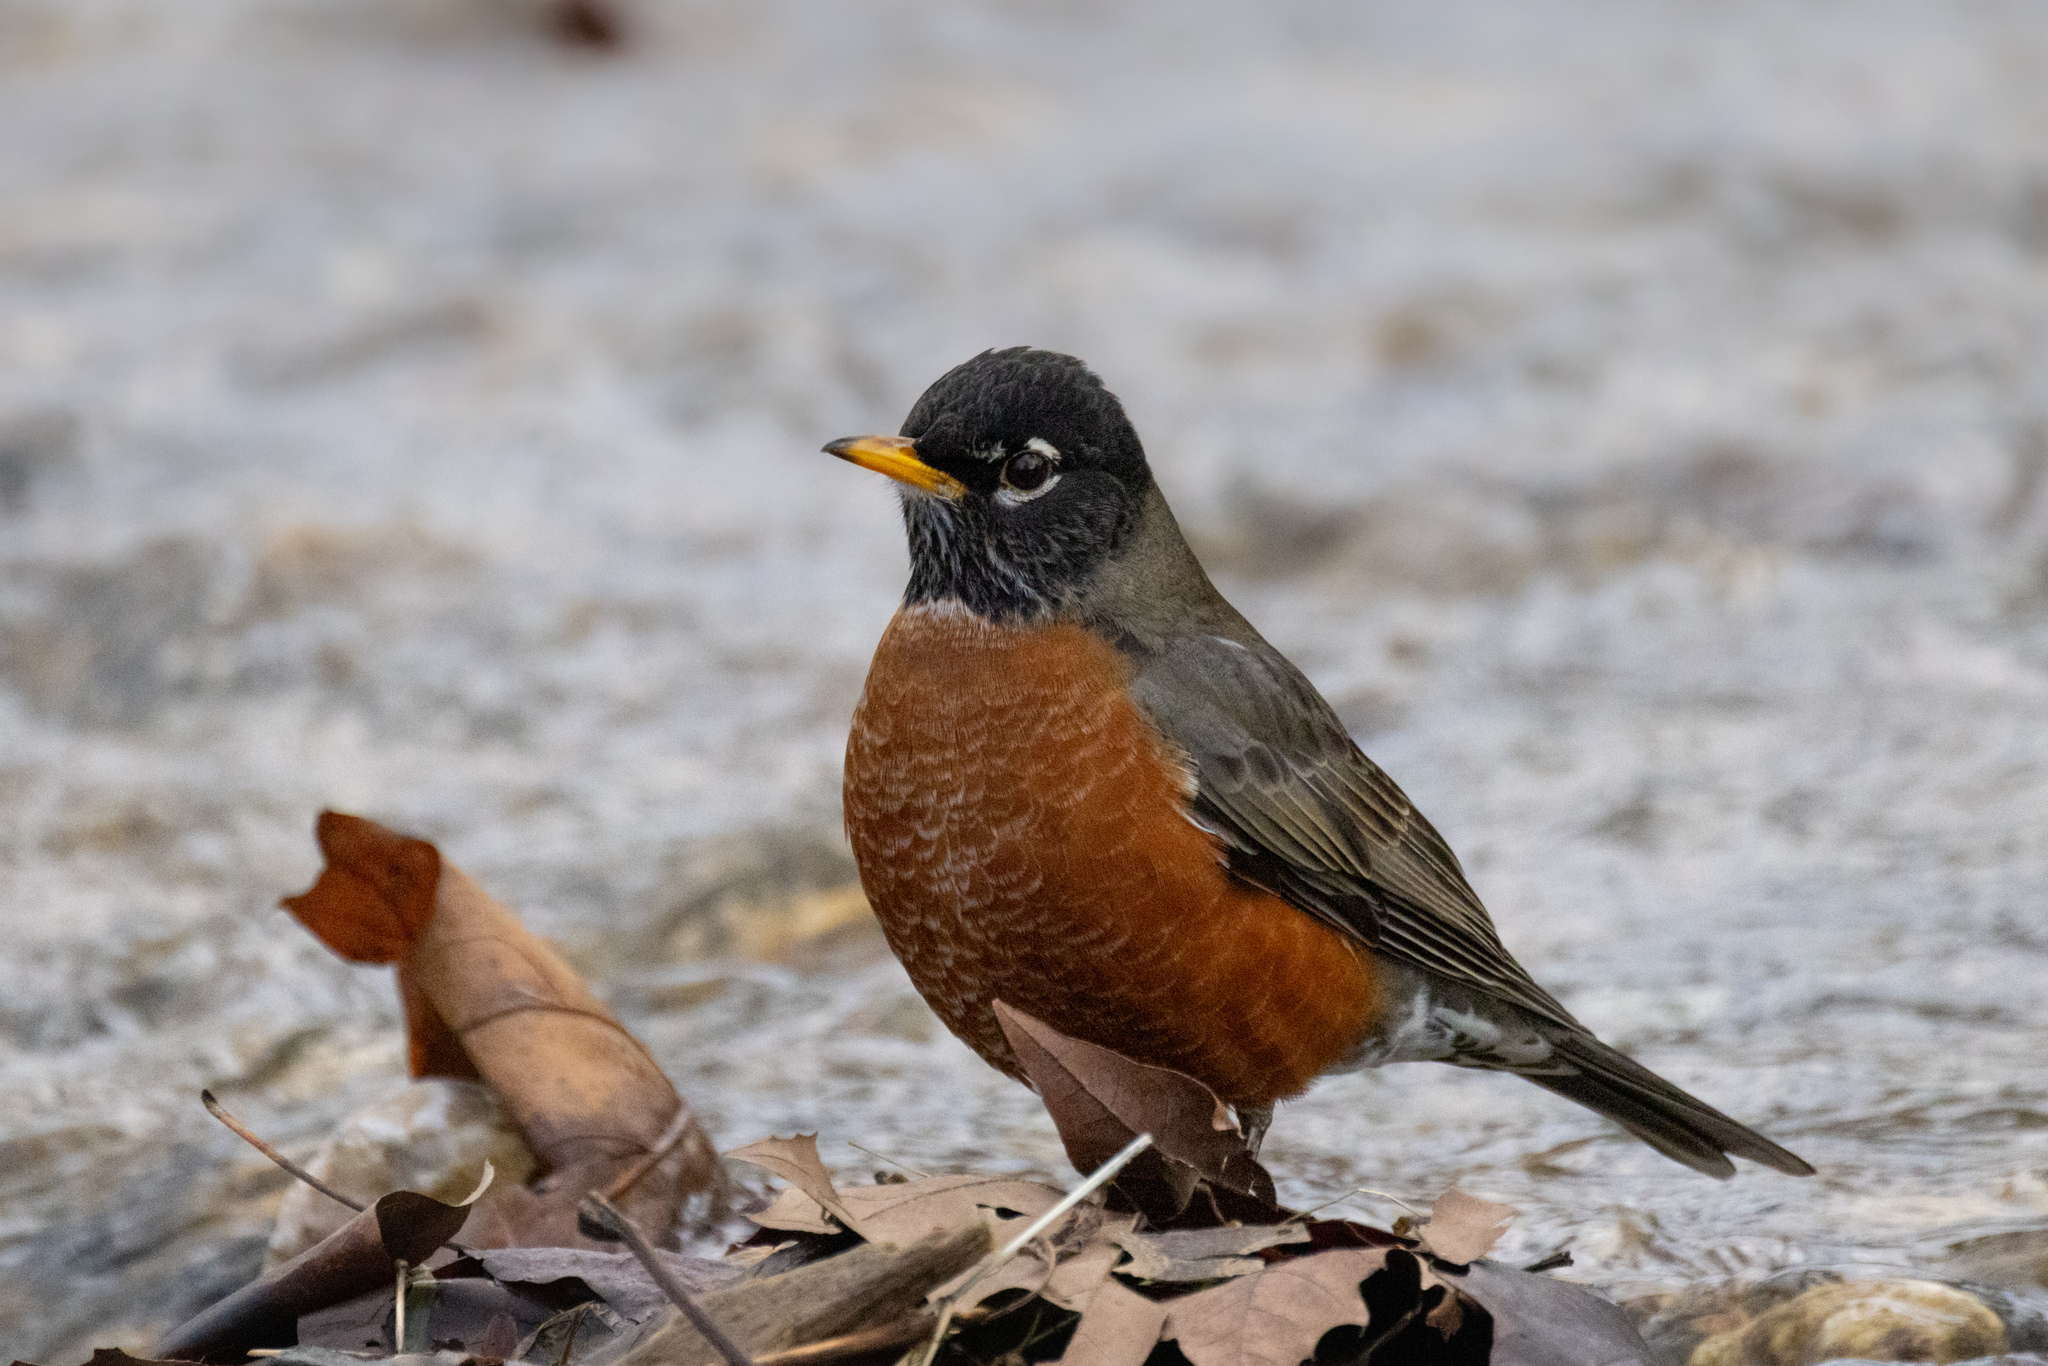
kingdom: Animalia
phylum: Chordata
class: Aves
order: Passeriformes
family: Turdidae
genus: Turdus
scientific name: Turdus migratorius
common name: American robin
